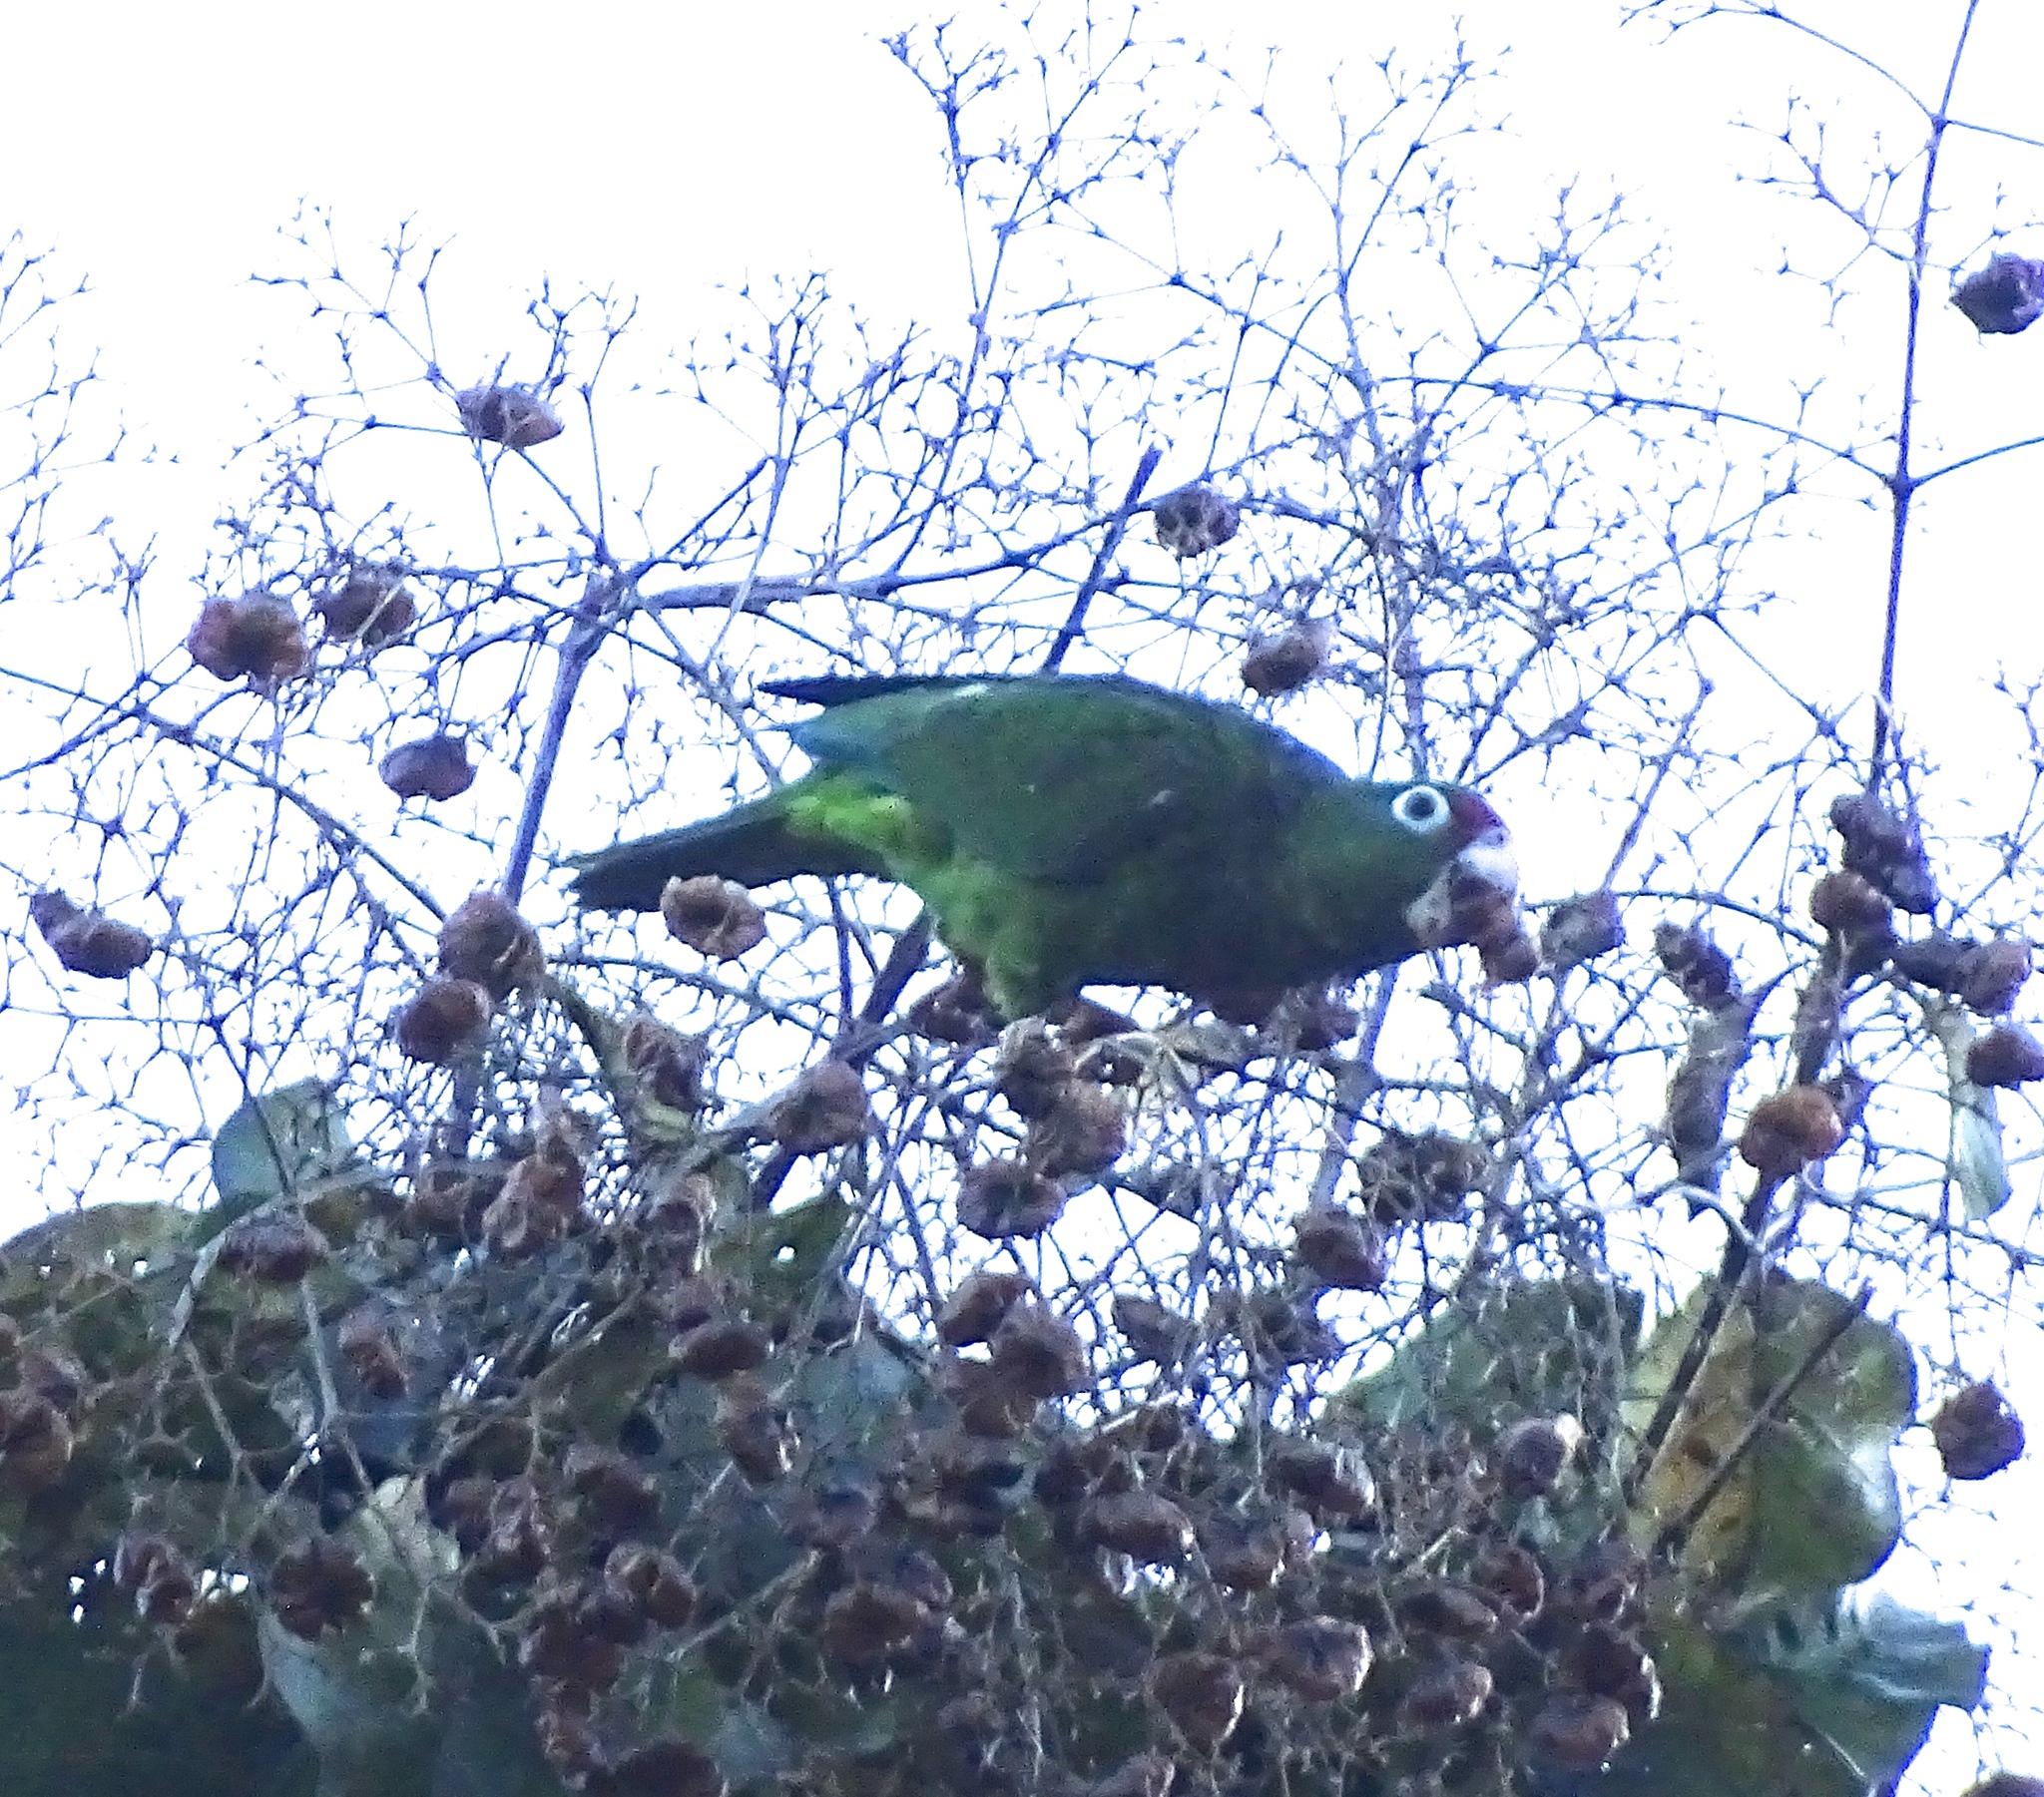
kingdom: Animalia
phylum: Chordata
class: Aves
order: Psittaciformes
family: Psittacidae
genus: Amazona
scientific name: Amazona vittata
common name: Puerto rican amazon
